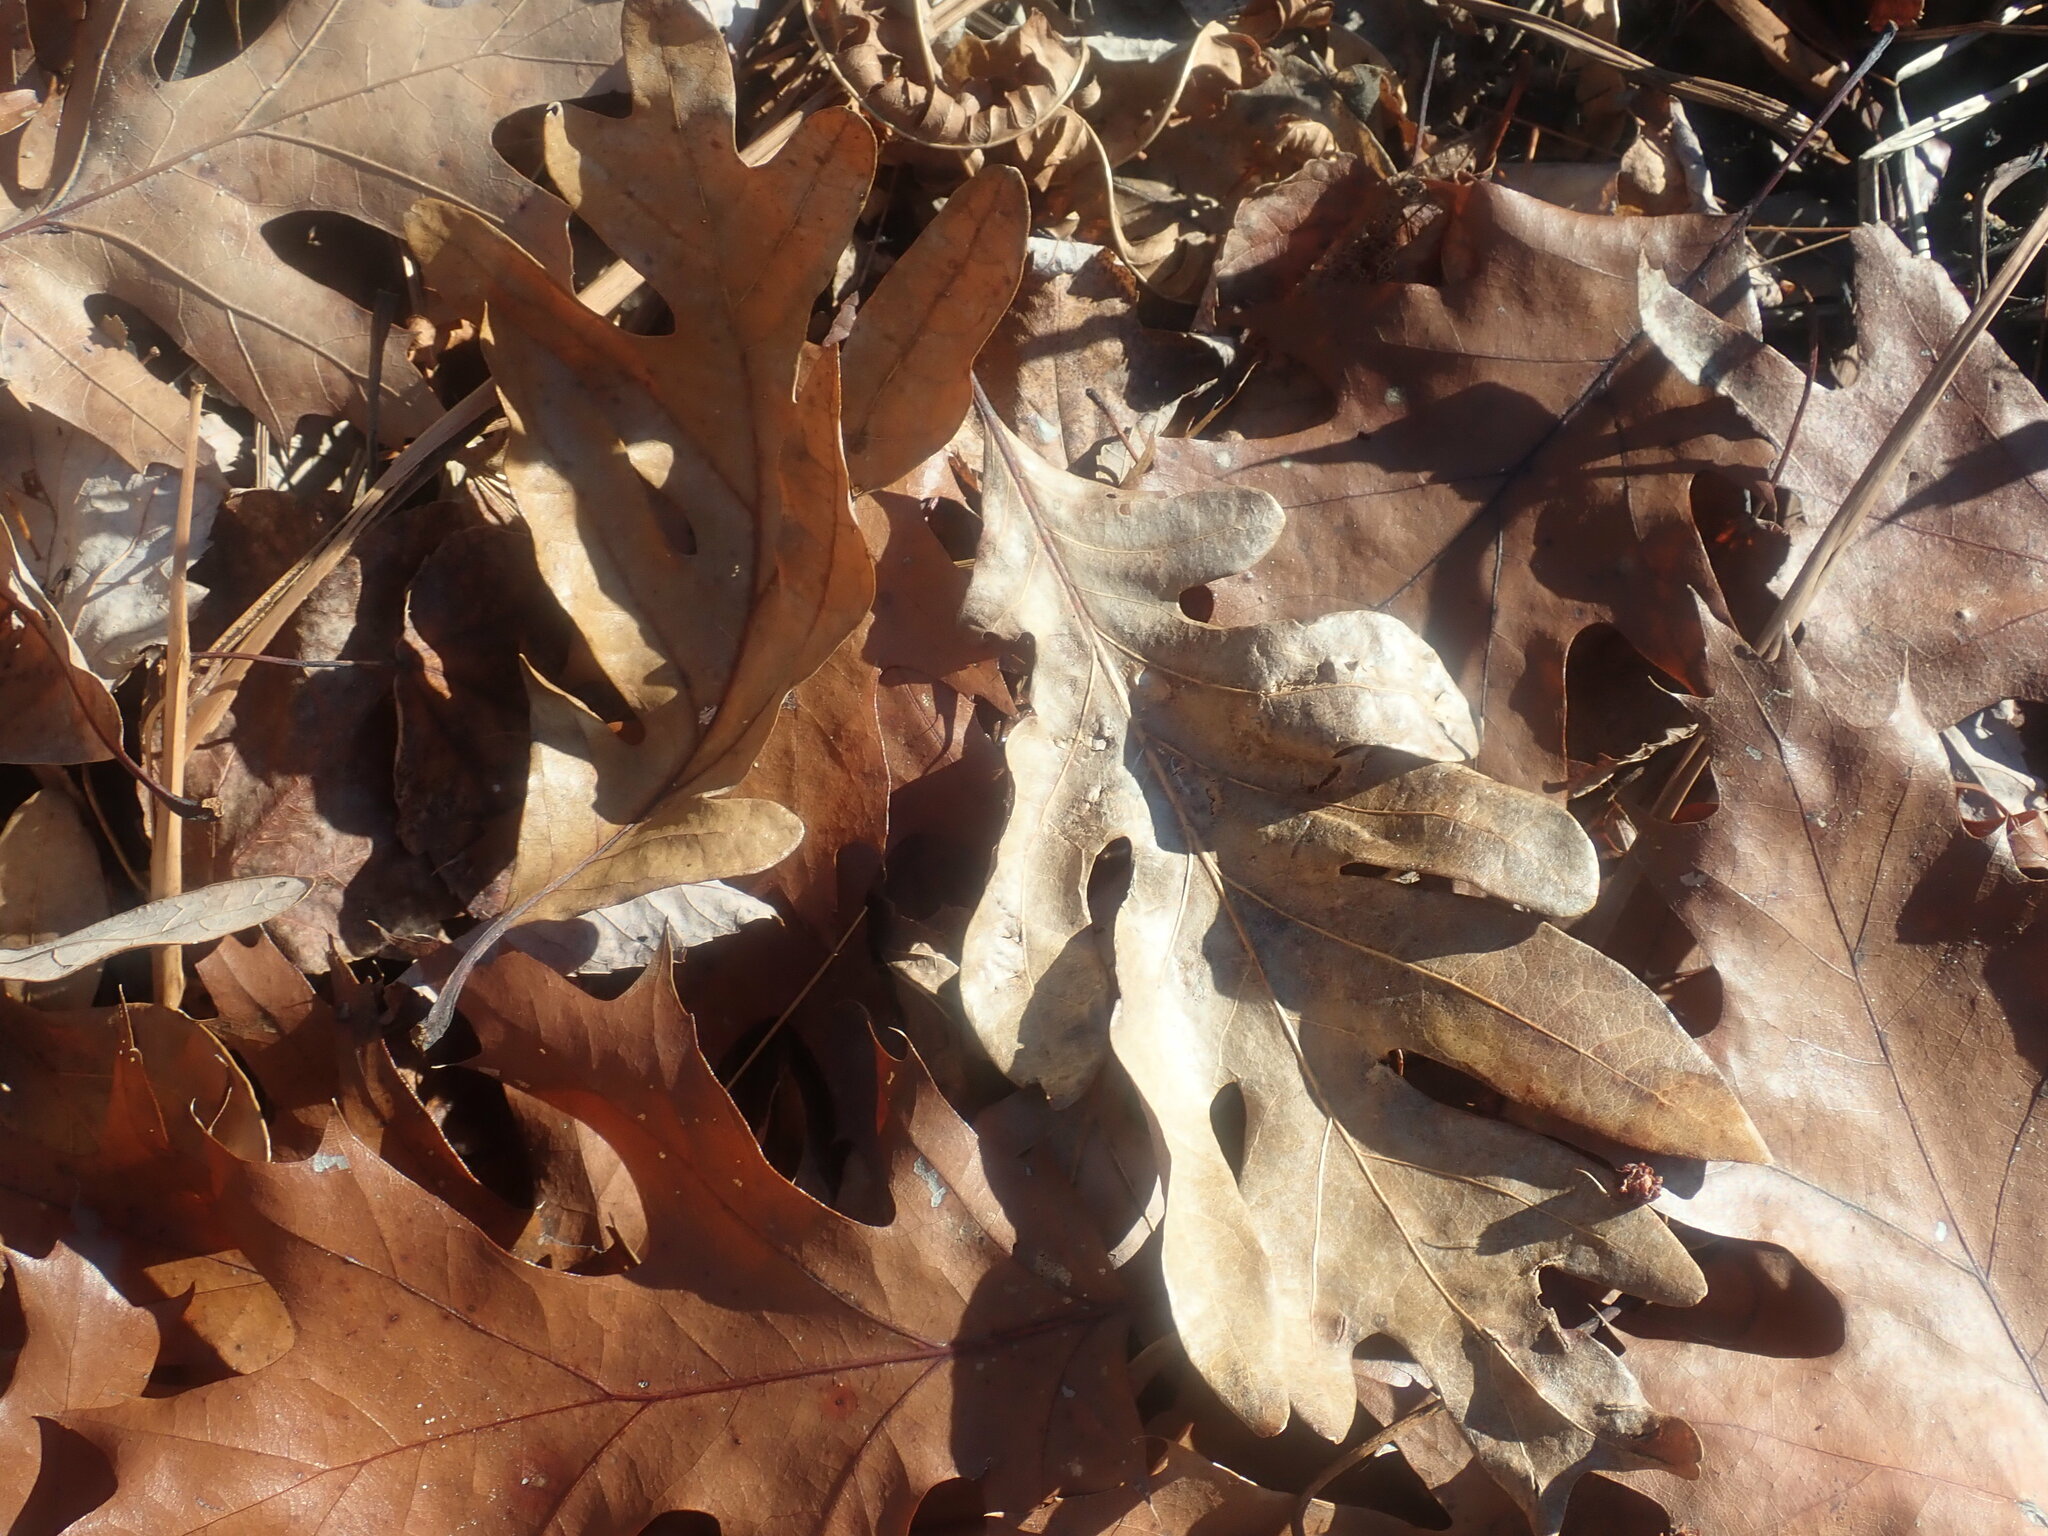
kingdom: Plantae
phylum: Tracheophyta
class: Magnoliopsida
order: Fagales
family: Fagaceae
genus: Quercus
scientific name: Quercus alba
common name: White oak
